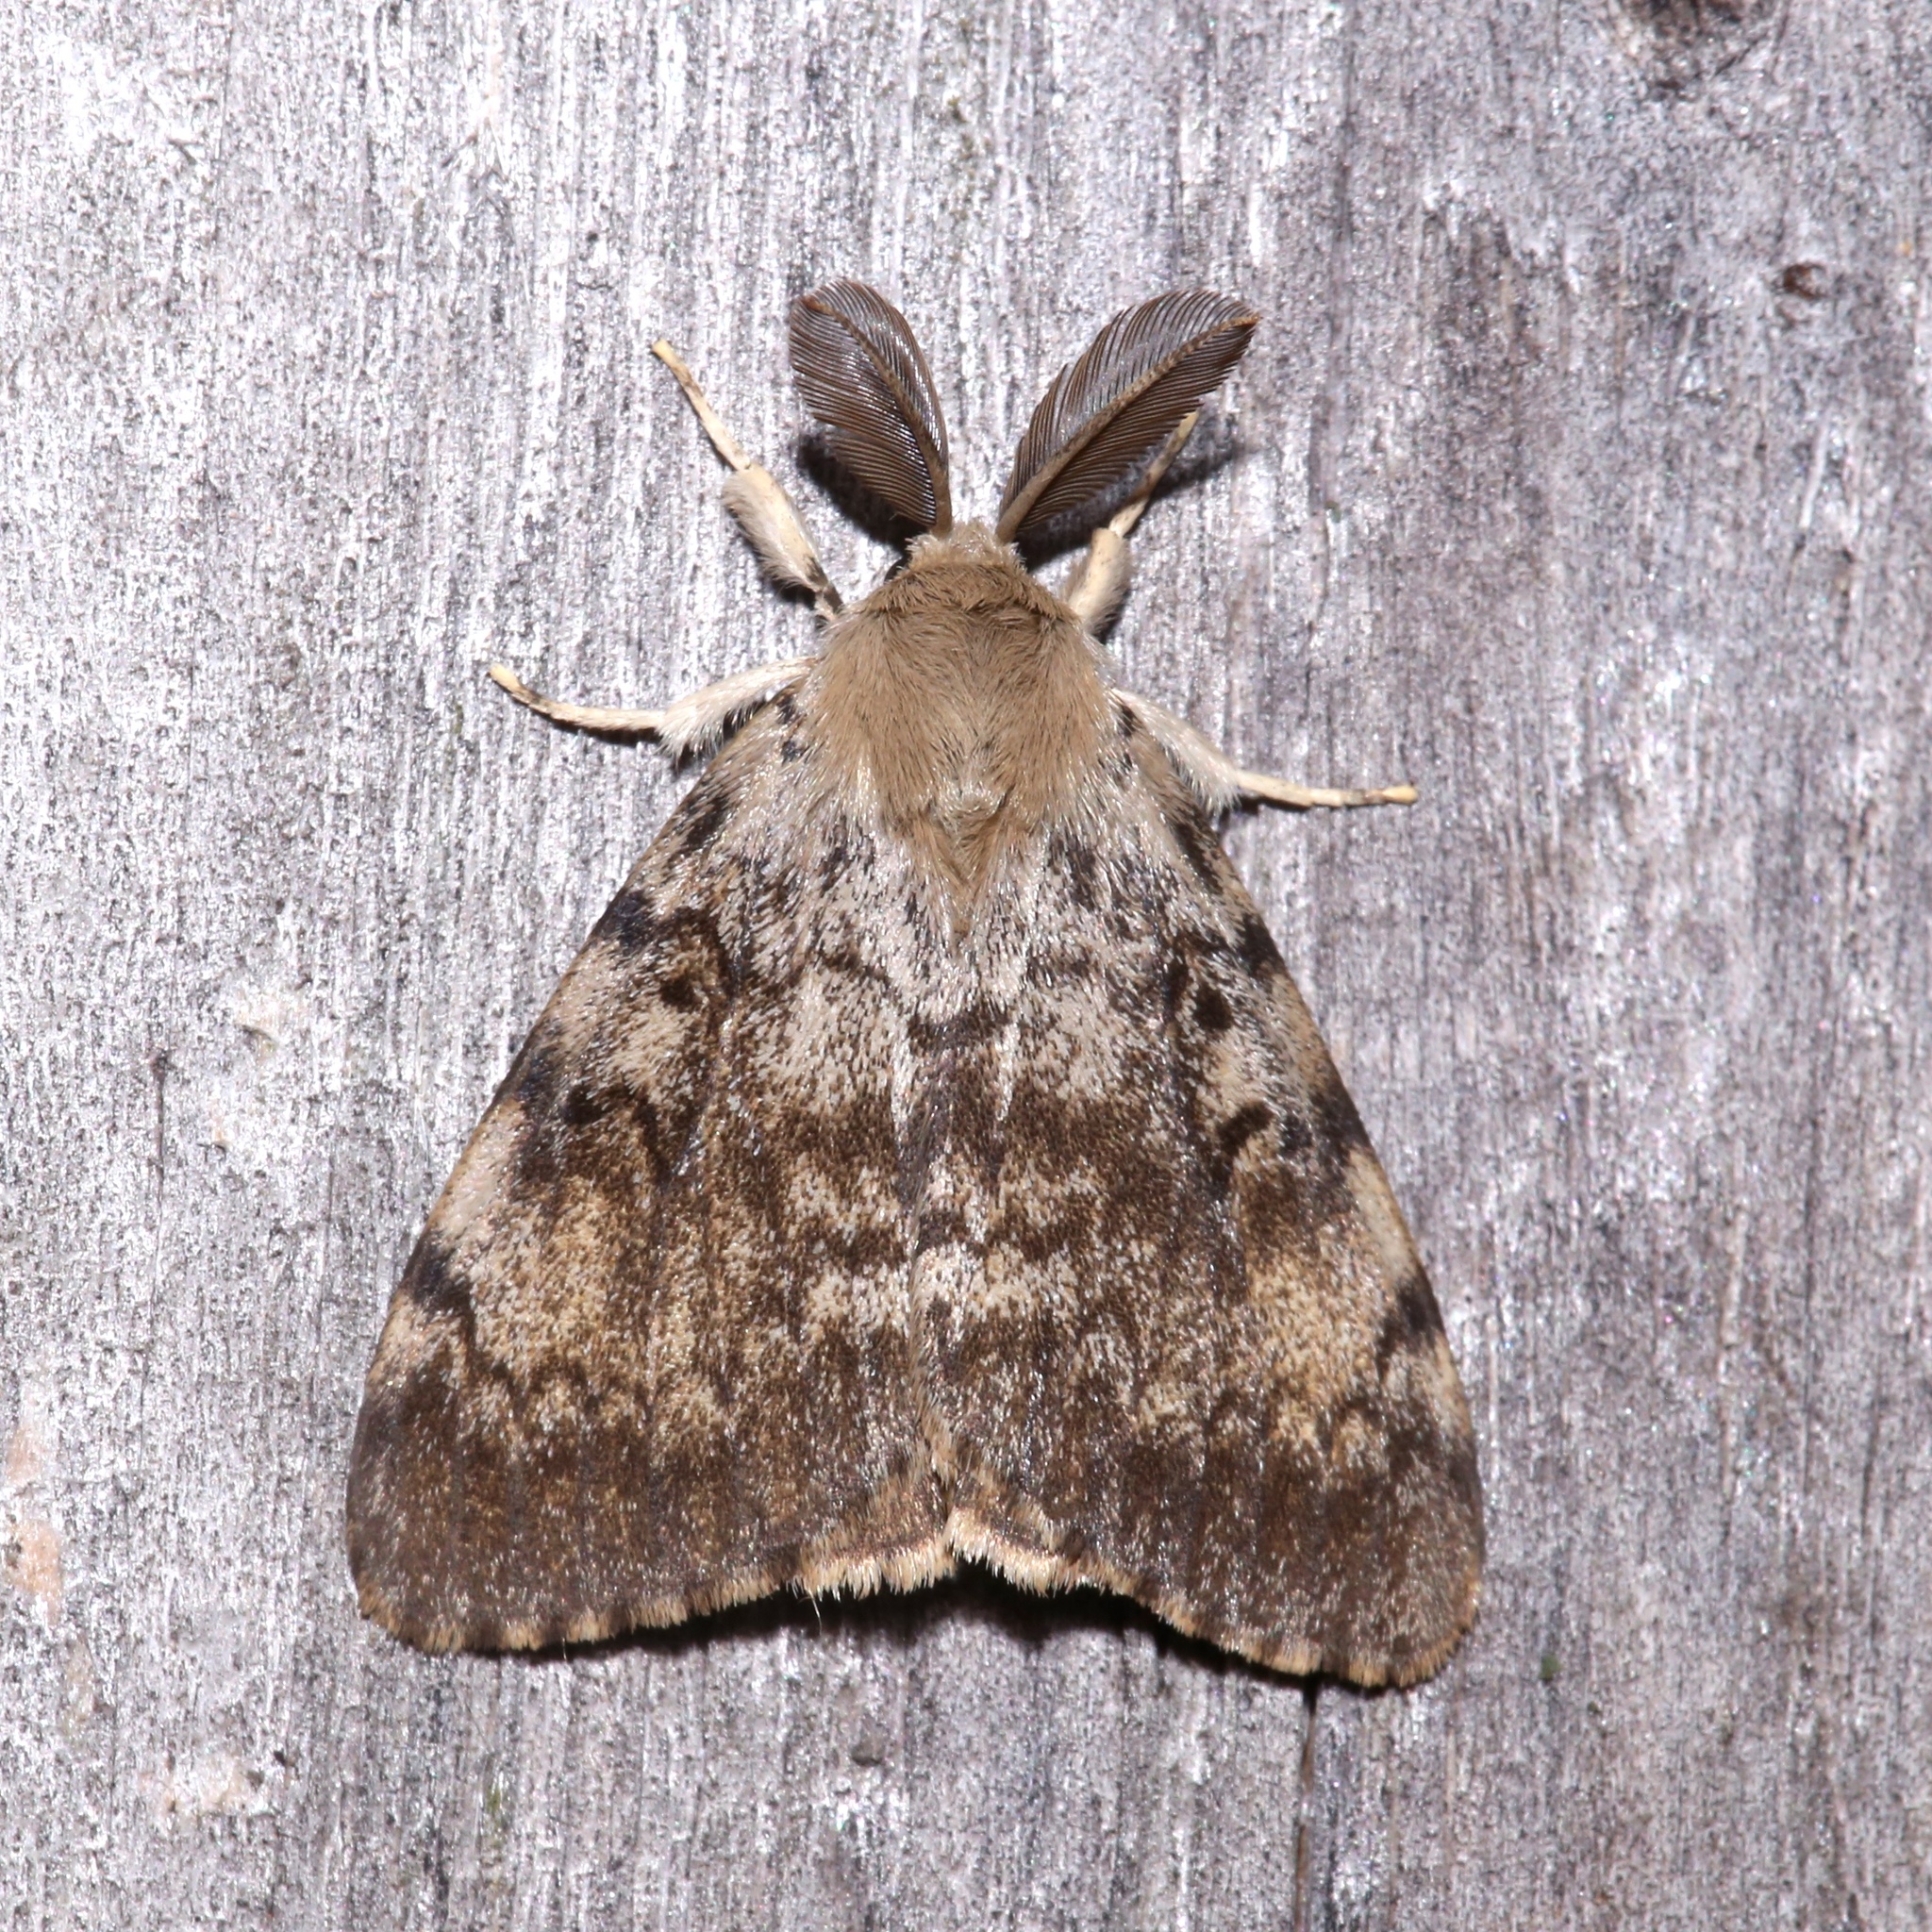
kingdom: Animalia
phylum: Arthropoda
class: Insecta
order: Lepidoptera
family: Erebidae
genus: Lymantria
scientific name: Lymantria dispar
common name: Gypsy moth
